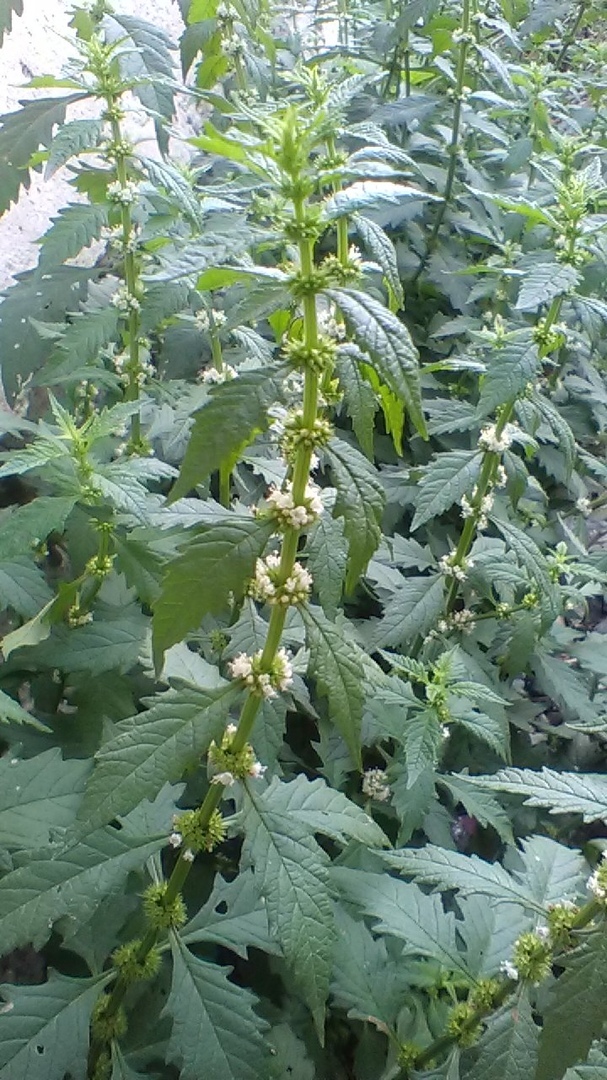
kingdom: Plantae
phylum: Tracheophyta
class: Magnoliopsida
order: Lamiales
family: Lamiaceae
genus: Lycopus
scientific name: Lycopus europaeus
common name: European bugleweed
